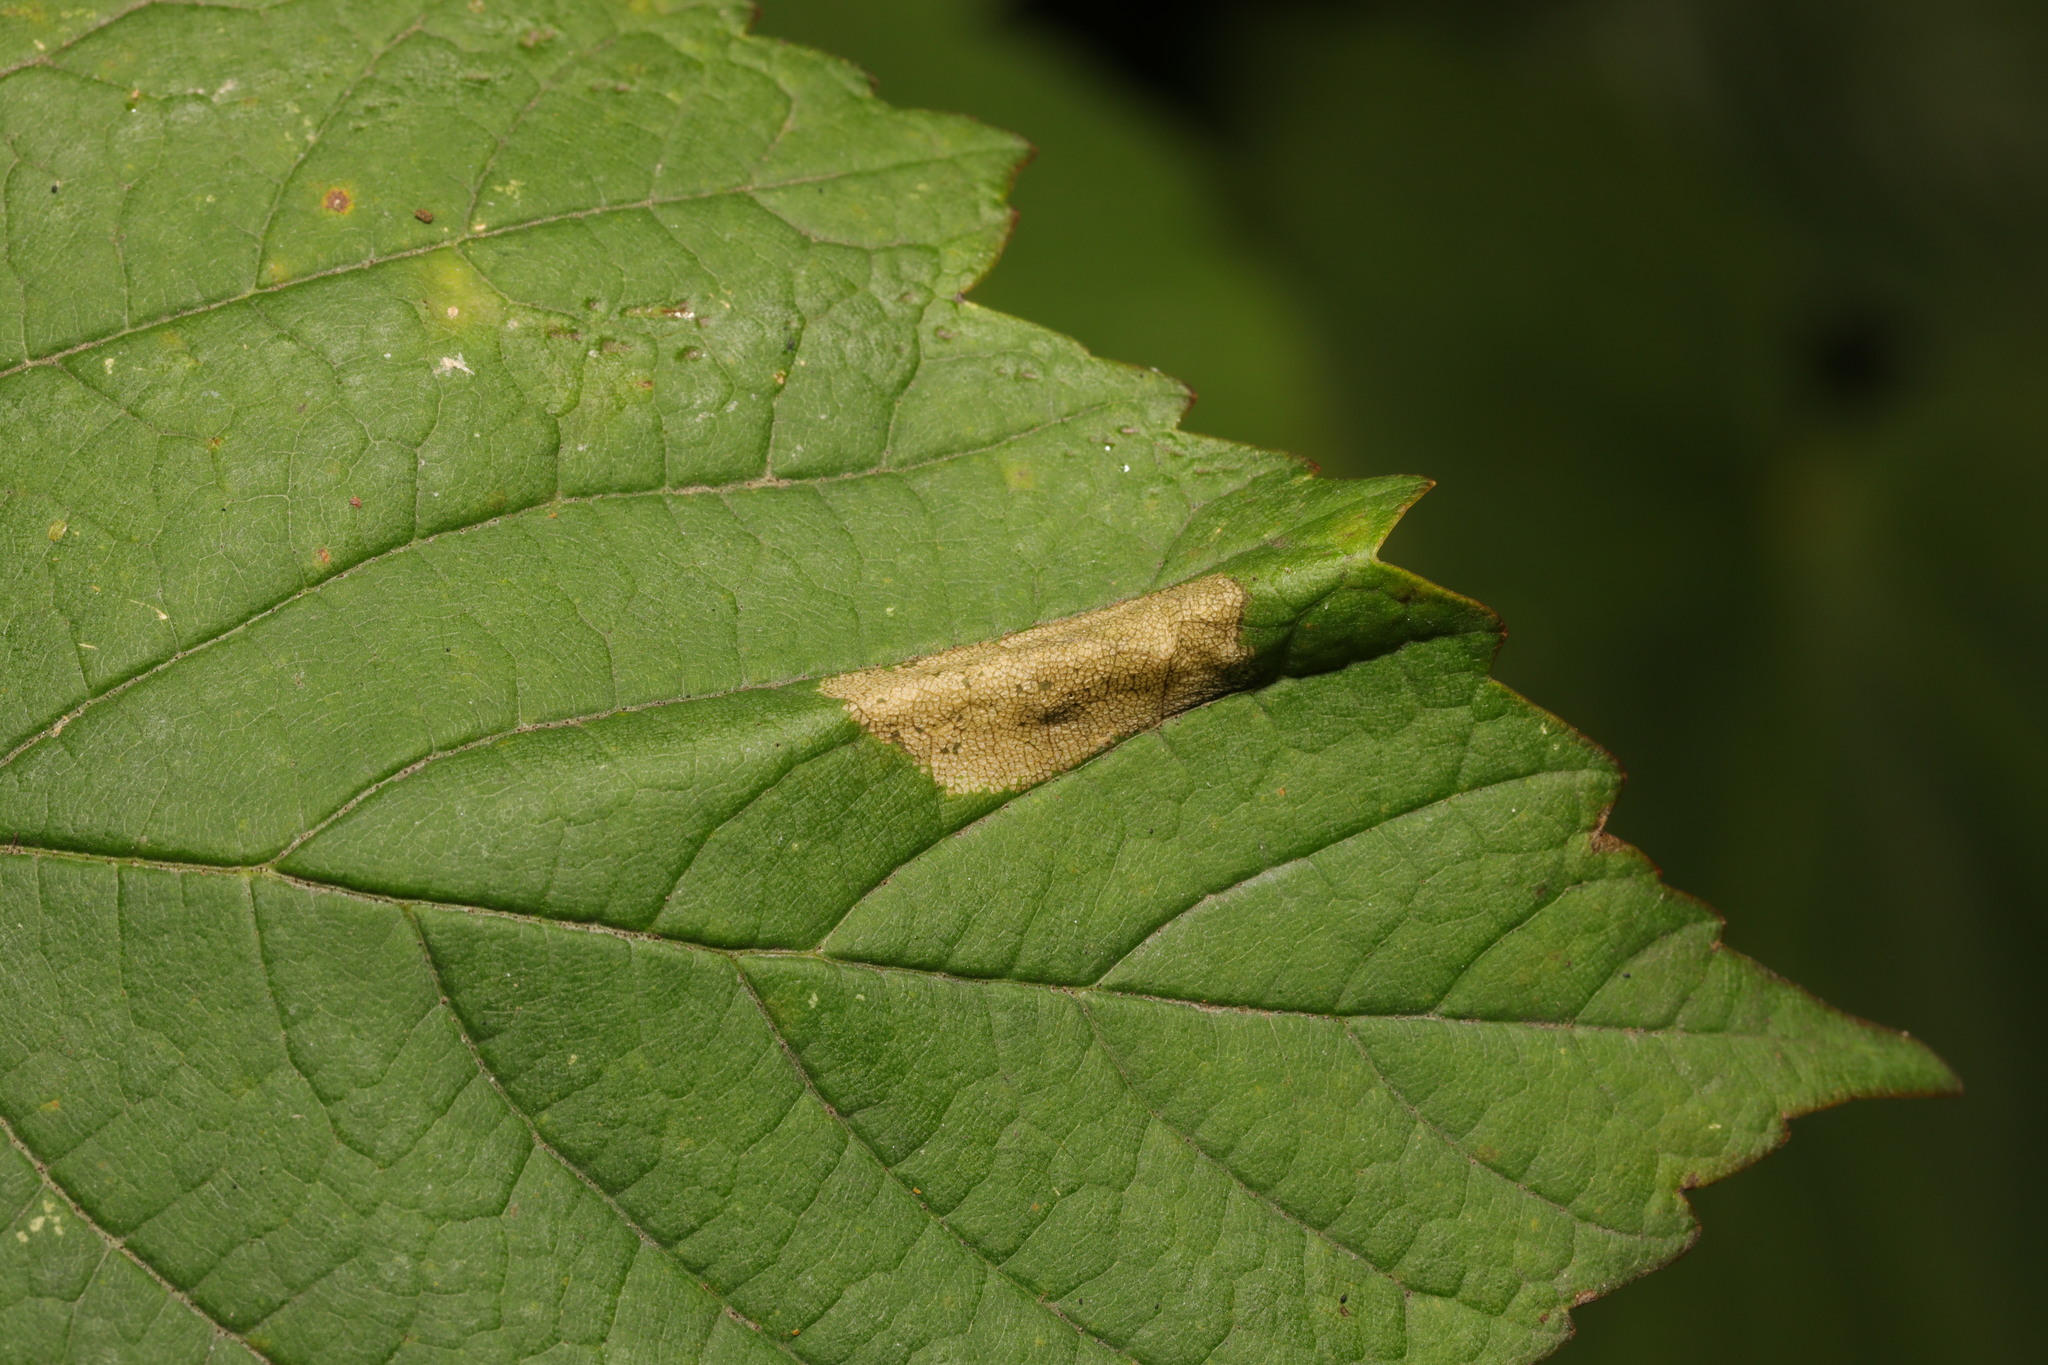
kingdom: Animalia
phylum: Arthropoda
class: Insecta
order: Lepidoptera
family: Gracillariidae
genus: Phyllonorycter
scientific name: Phyllonorycter geniculella
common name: Sycamore midget
